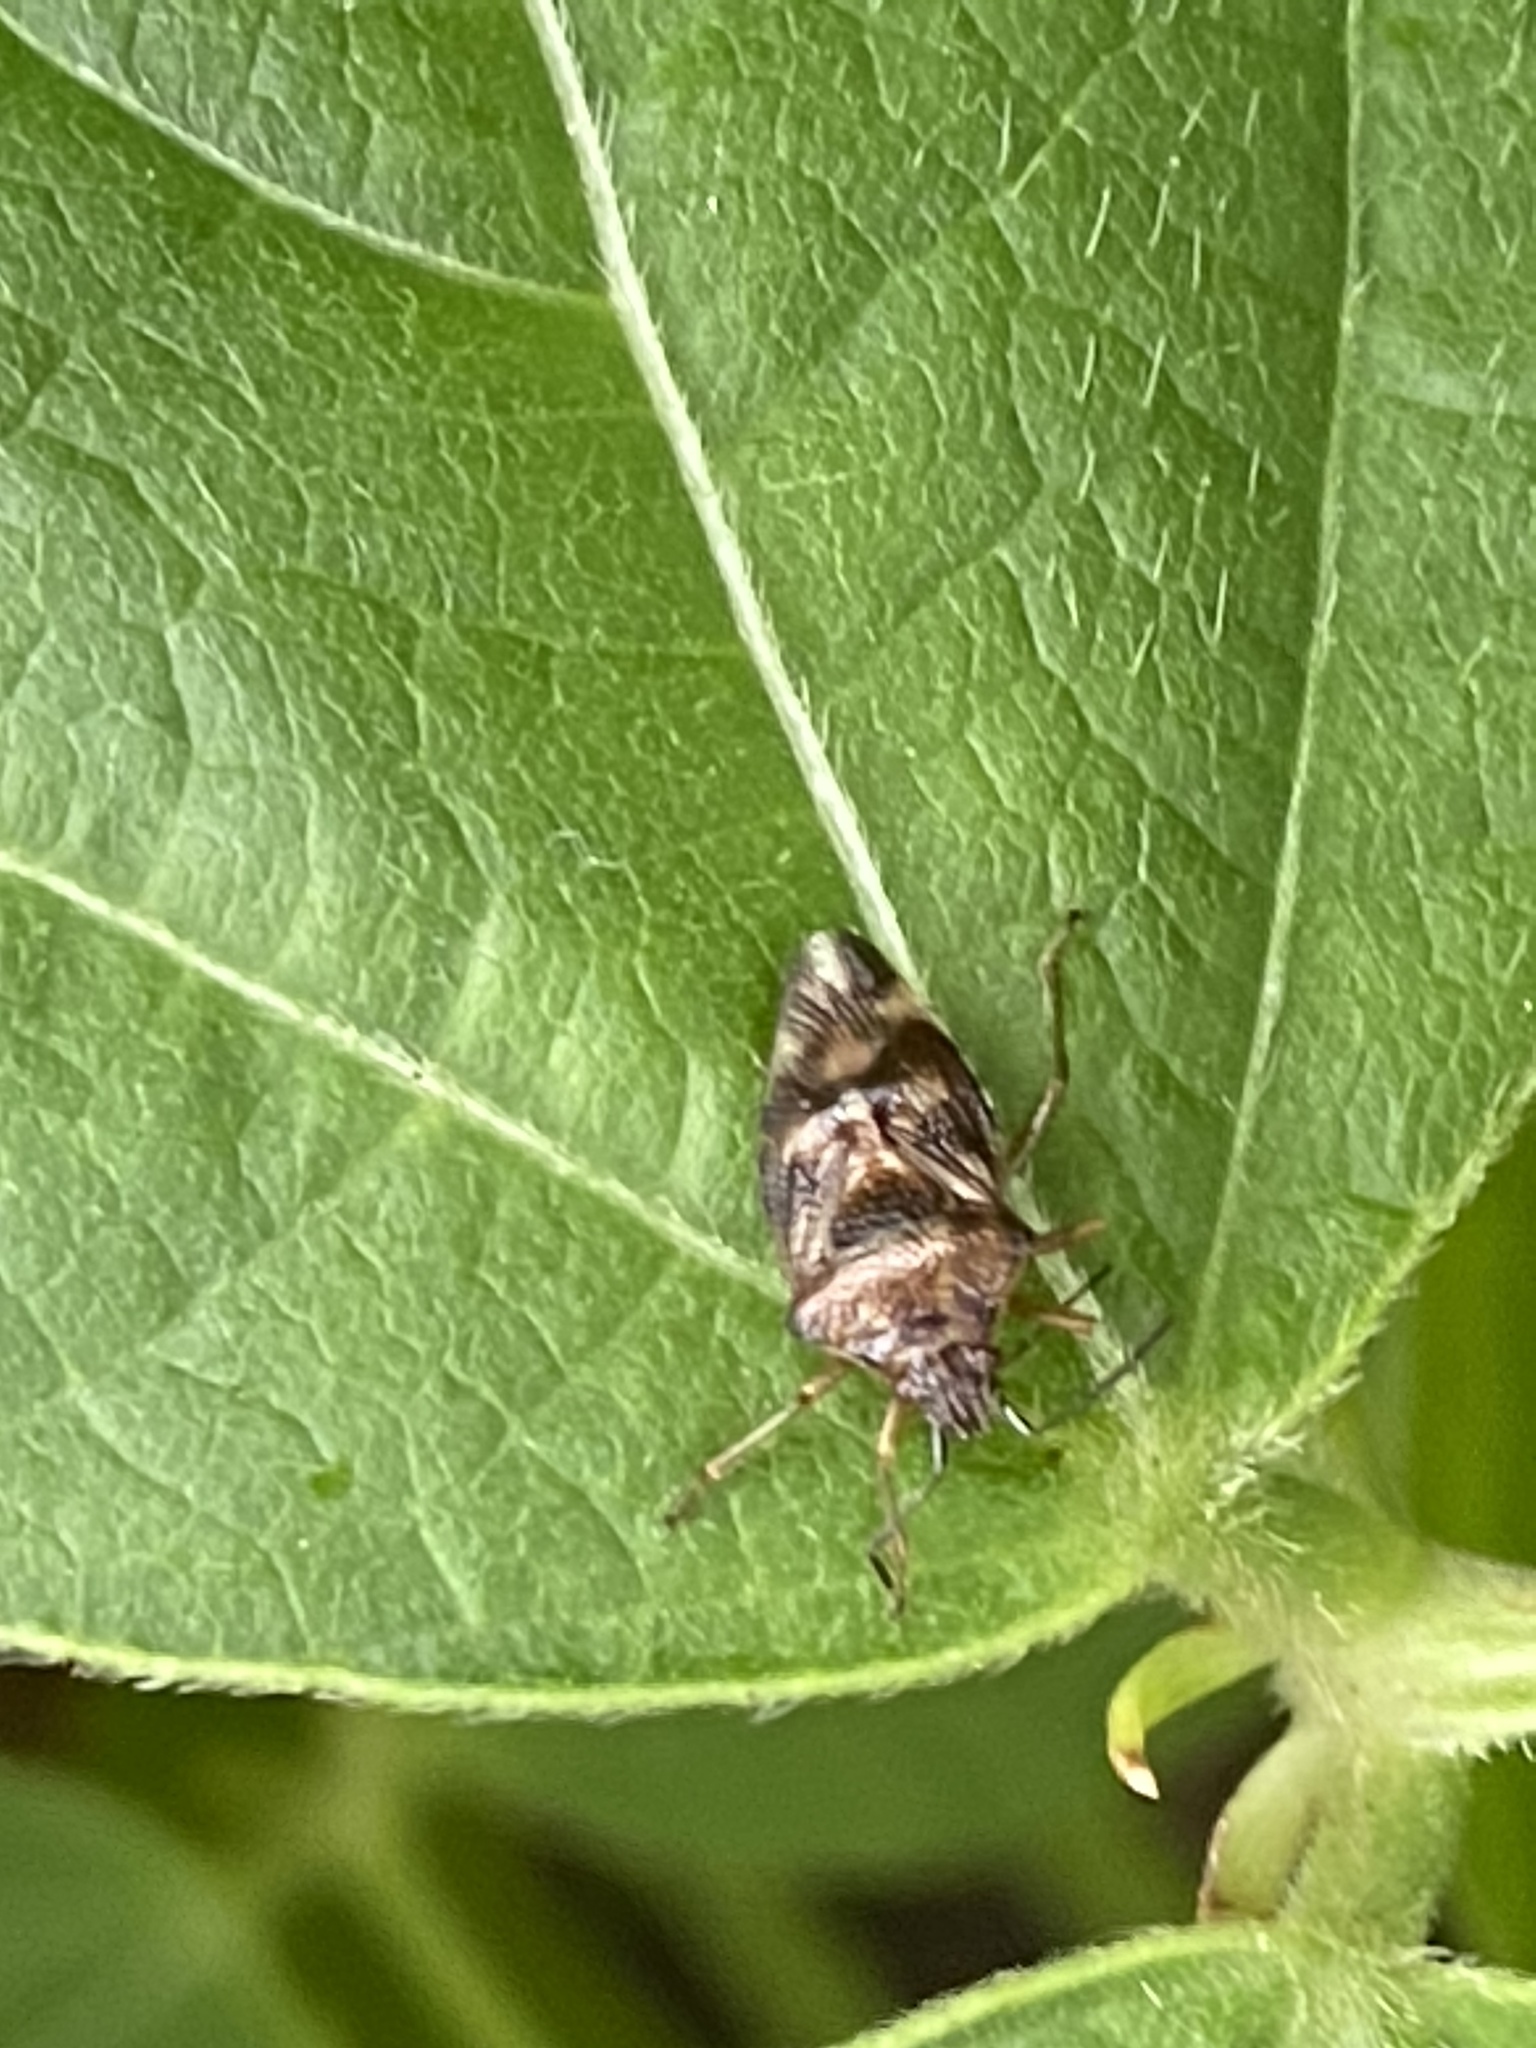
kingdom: Animalia
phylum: Arthropoda
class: Insecta
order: Hemiptera
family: Acanthosomatidae
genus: Elasmucha
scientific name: Elasmucha lateralis
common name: Shield bug
